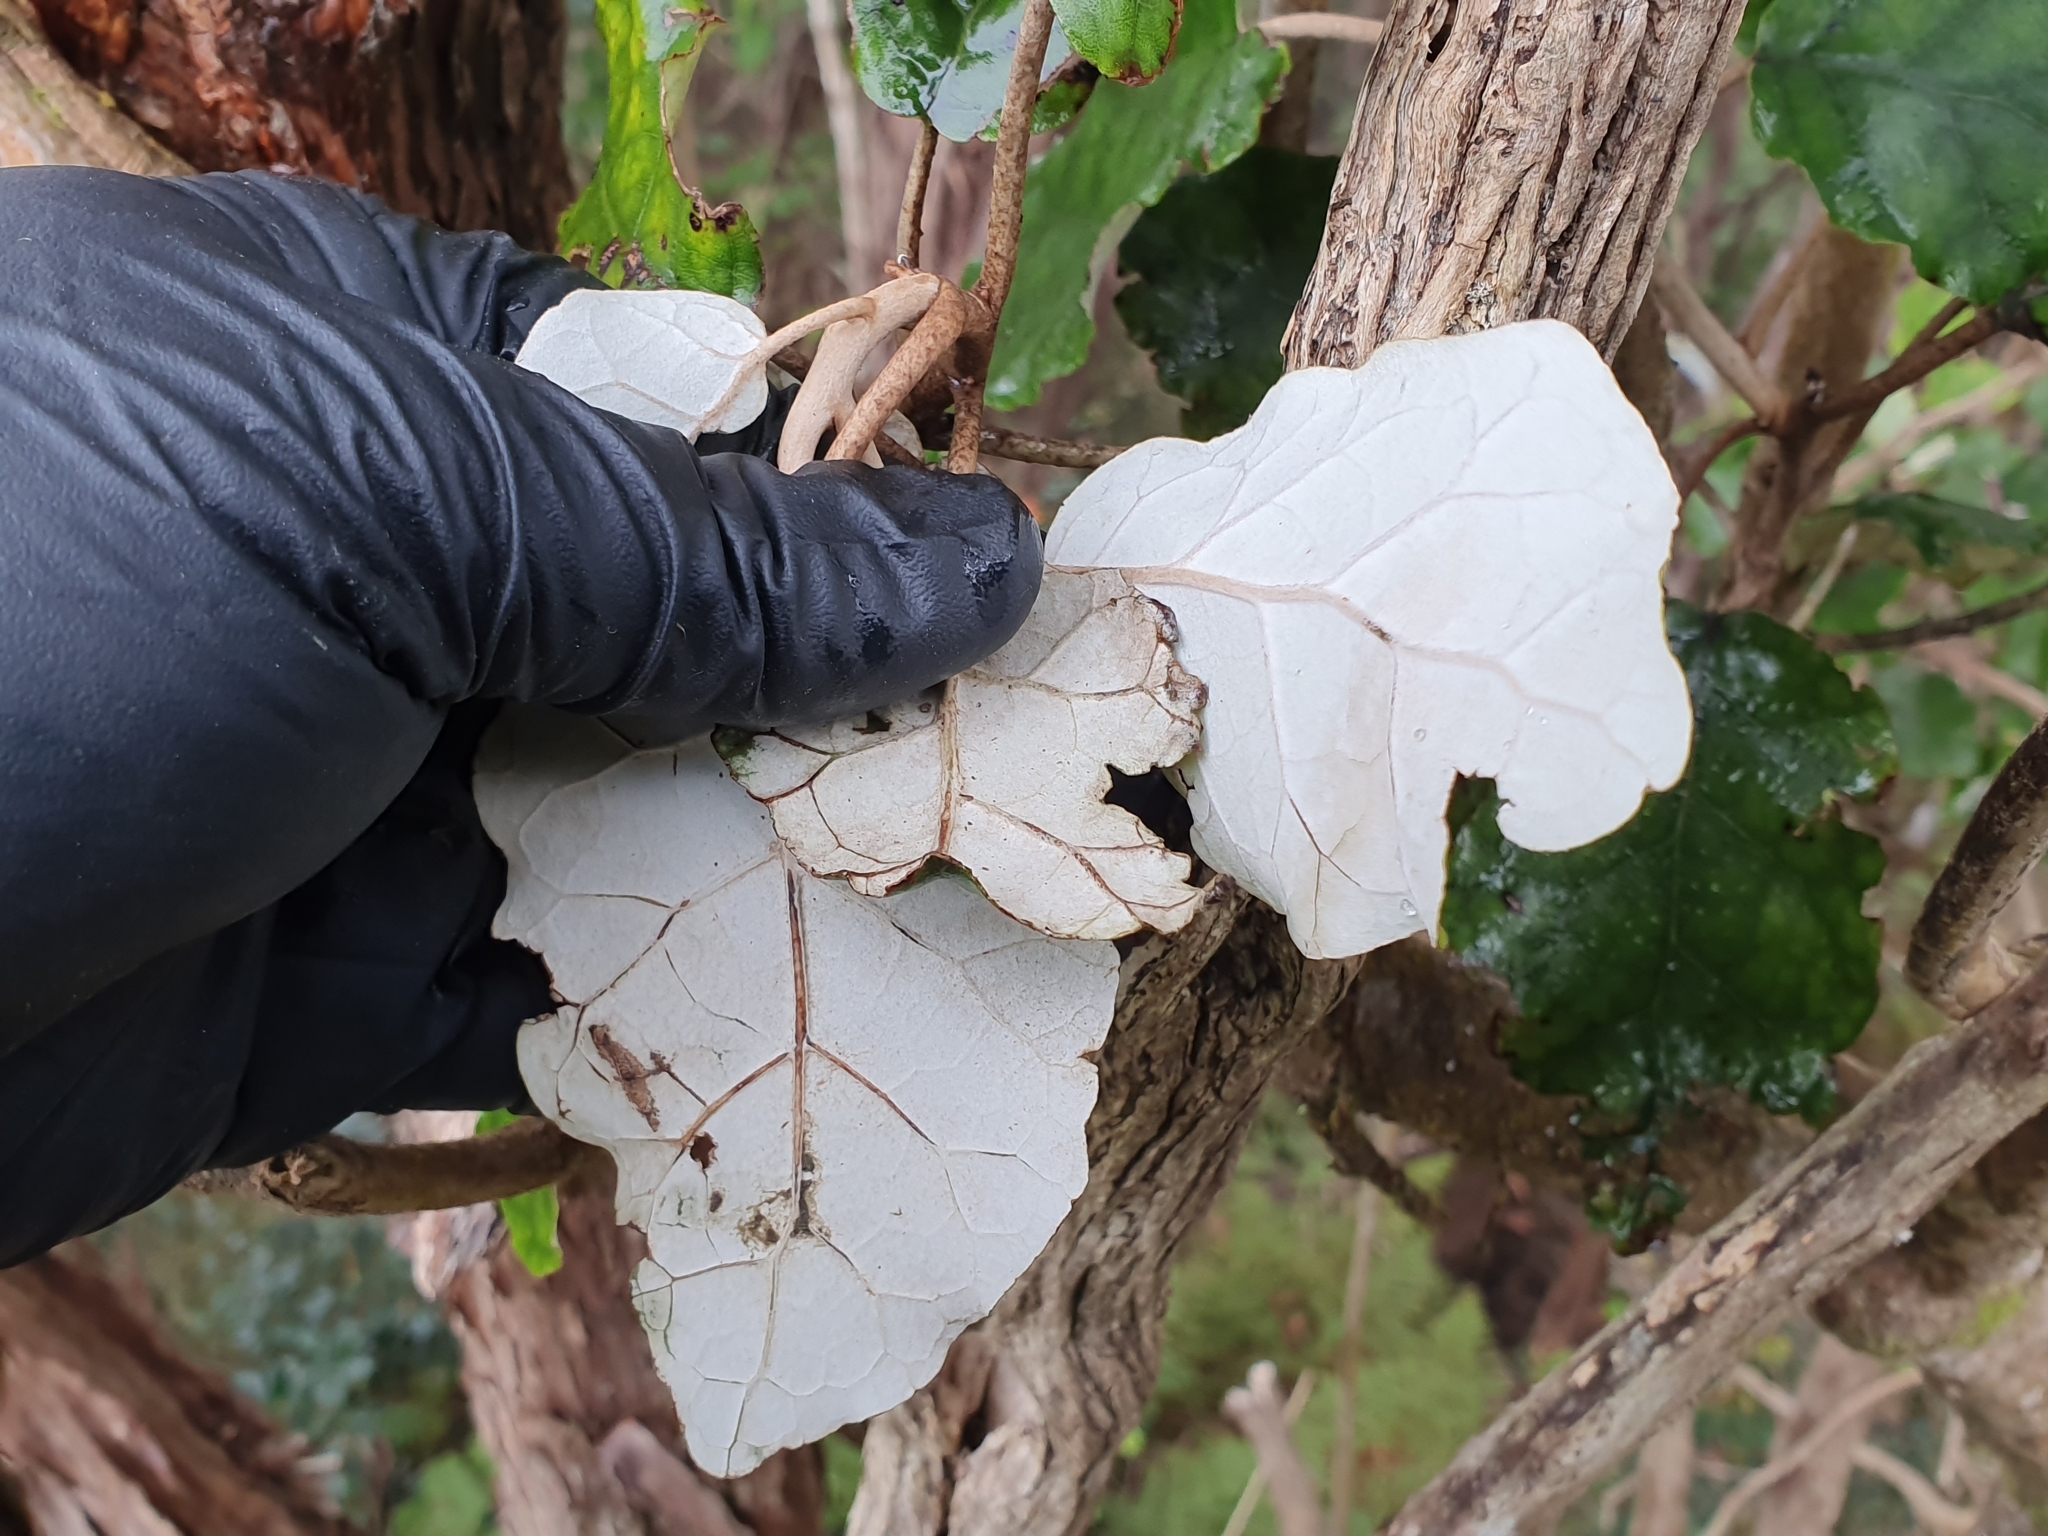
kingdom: Plantae
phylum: Tracheophyta
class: Magnoliopsida
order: Asterales
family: Asteraceae
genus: Brachyglottis
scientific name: Brachyglottis repanda
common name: Hedge ragwort
